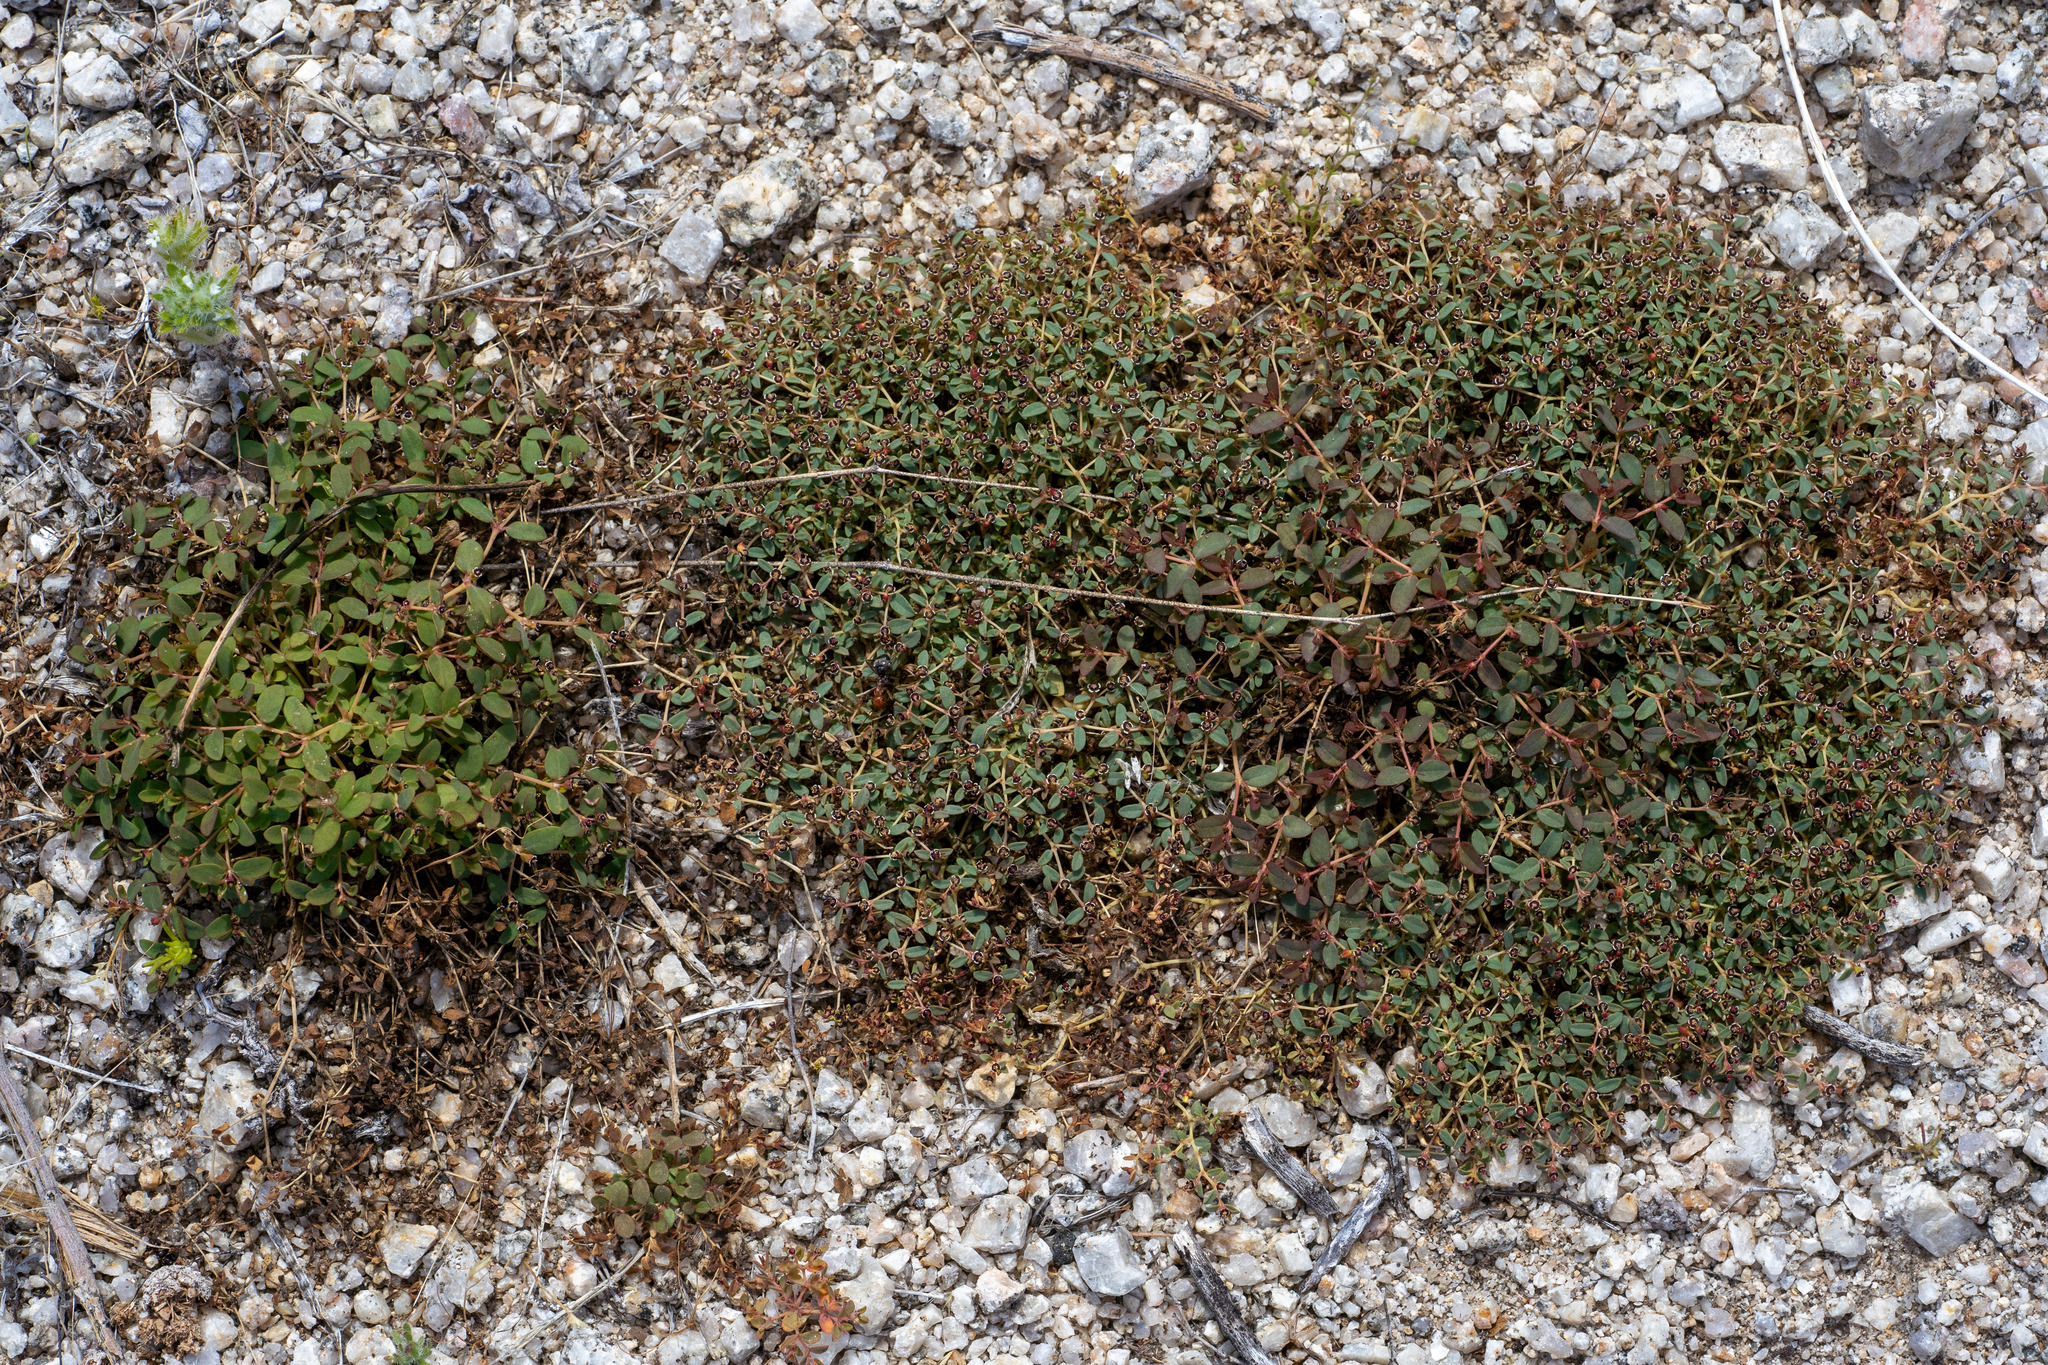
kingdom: Plantae
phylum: Tracheophyta
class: Magnoliopsida
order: Malpighiales
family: Euphorbiaceae
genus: Euphorbia
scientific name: Euphorbia polycarpa
